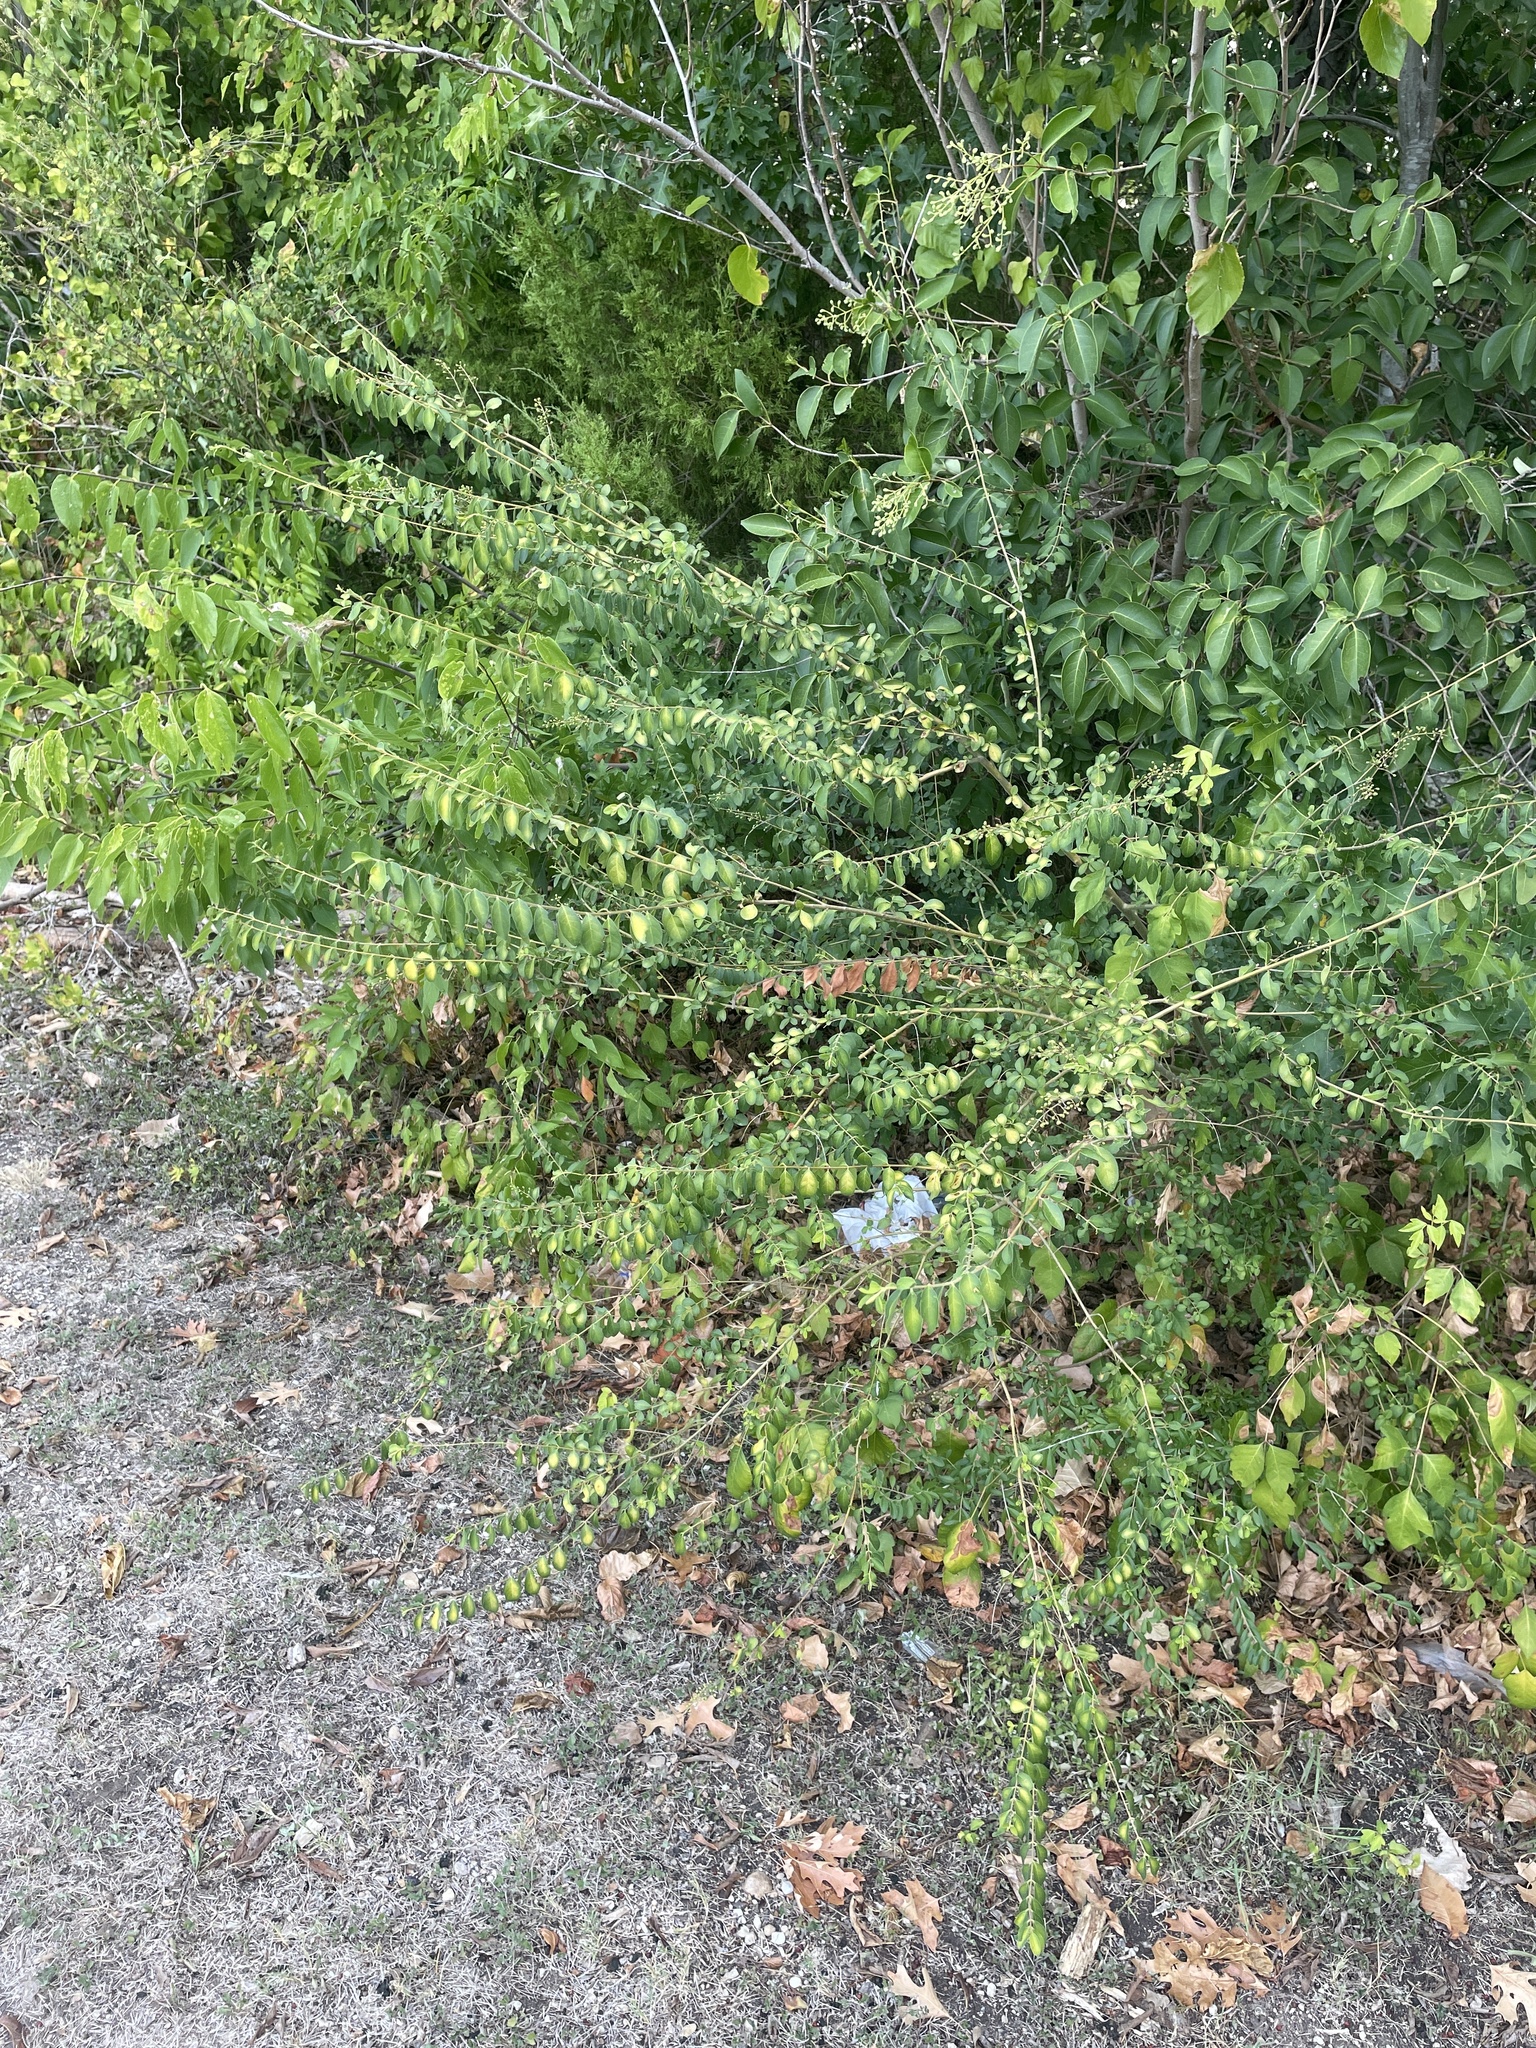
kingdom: Plantae
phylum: Tracheophyta
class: Magnoliopsida
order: Lamiales
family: Oleaceae
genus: Ligustrum
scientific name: Ligustrum sinense
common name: Chinese privet
